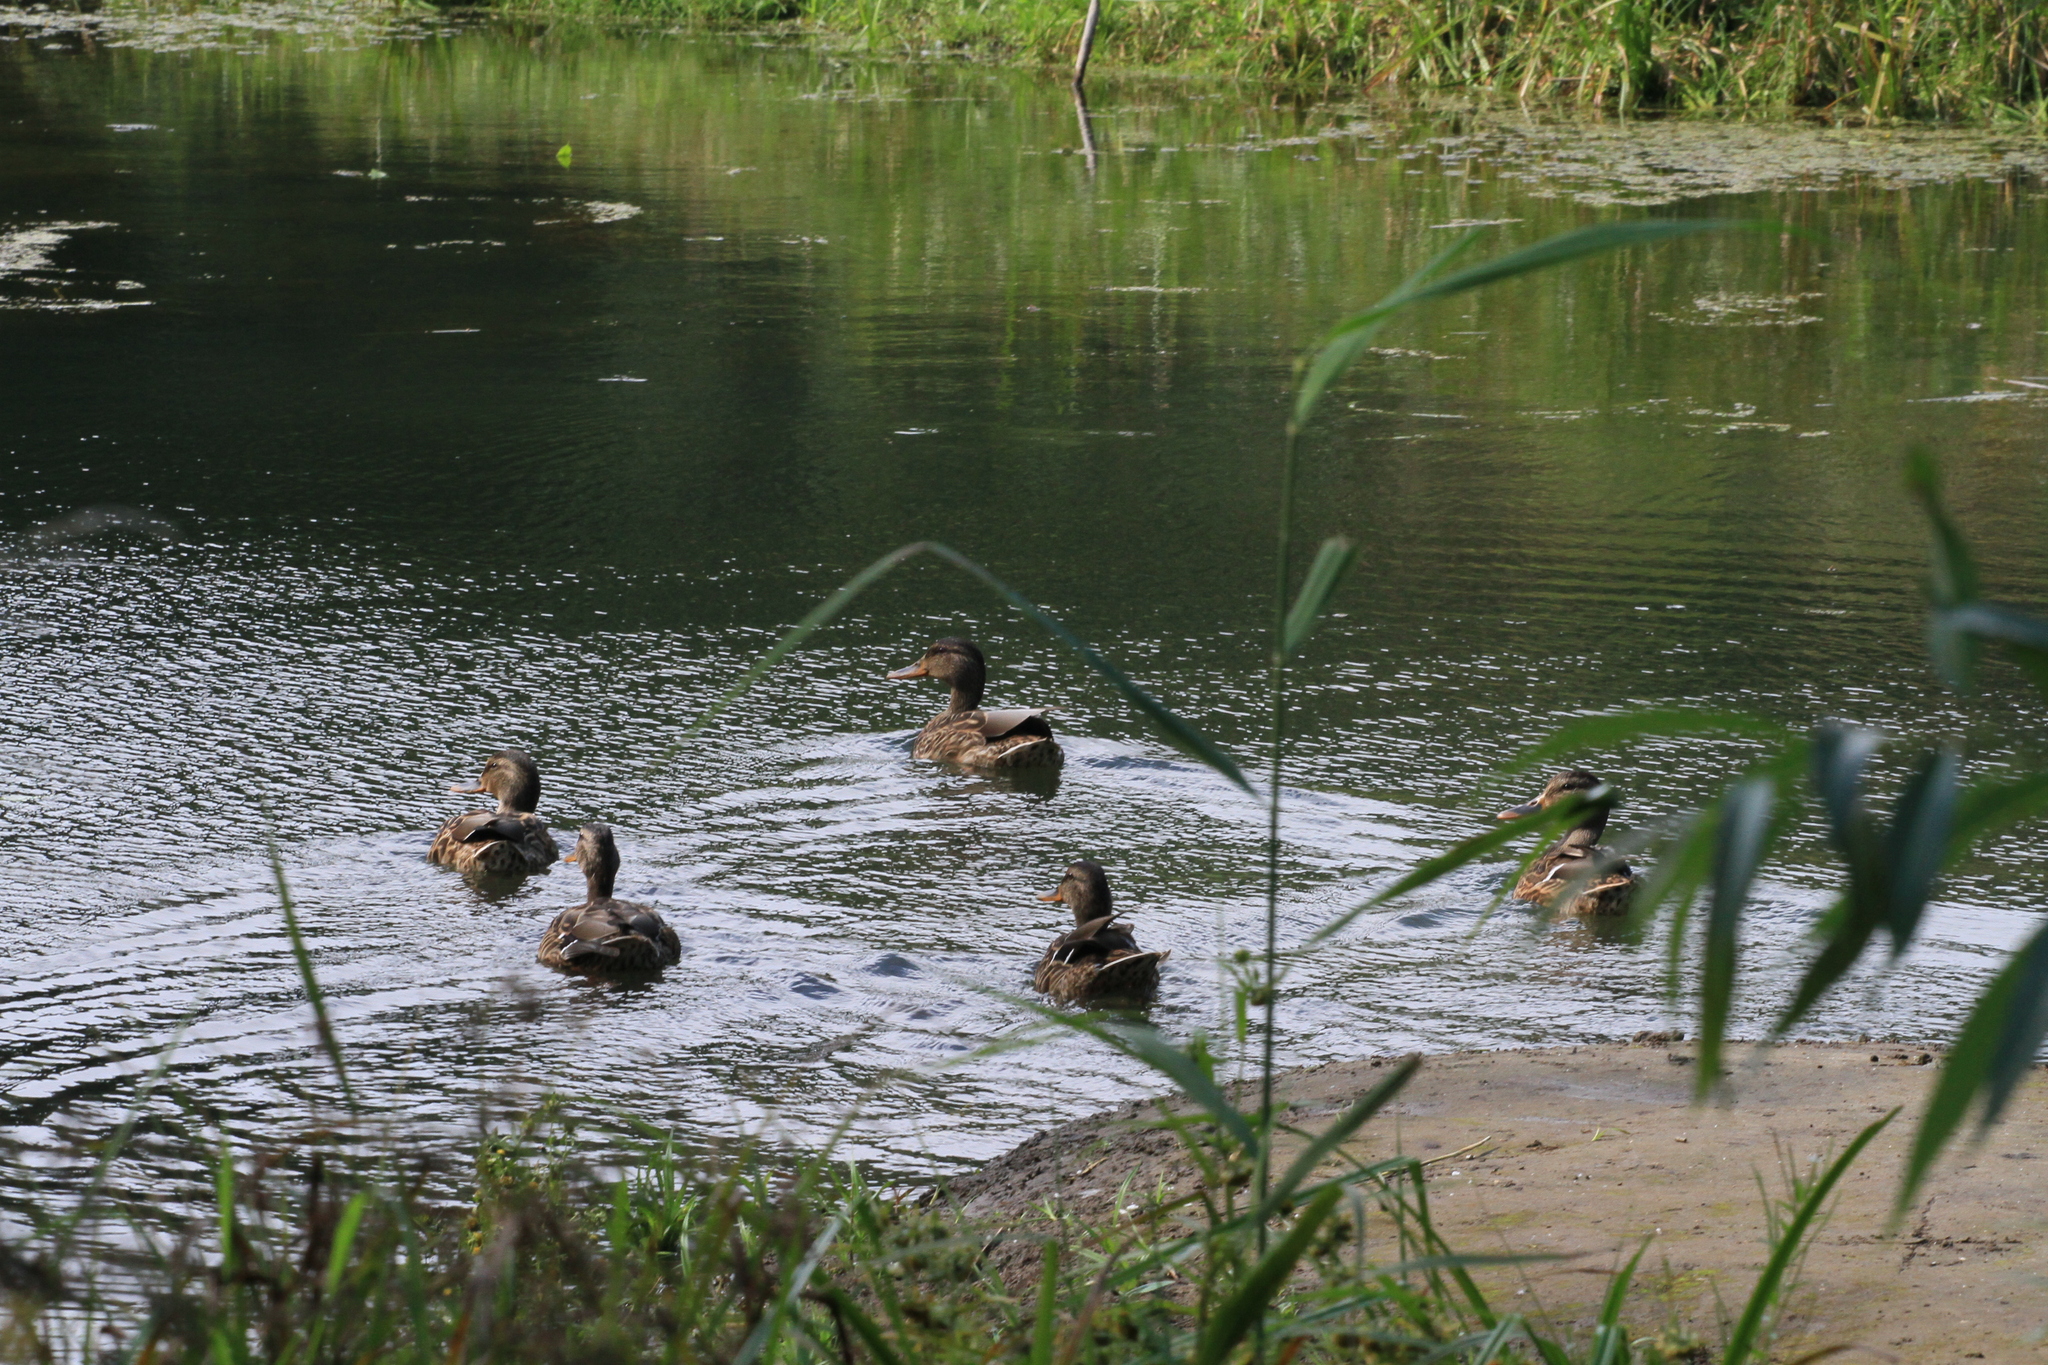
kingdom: Animalia
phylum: Chordata
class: Aves
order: Anseriformes
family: Anatidae
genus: Anas
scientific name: Anas platyrhynchos
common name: Mallard
